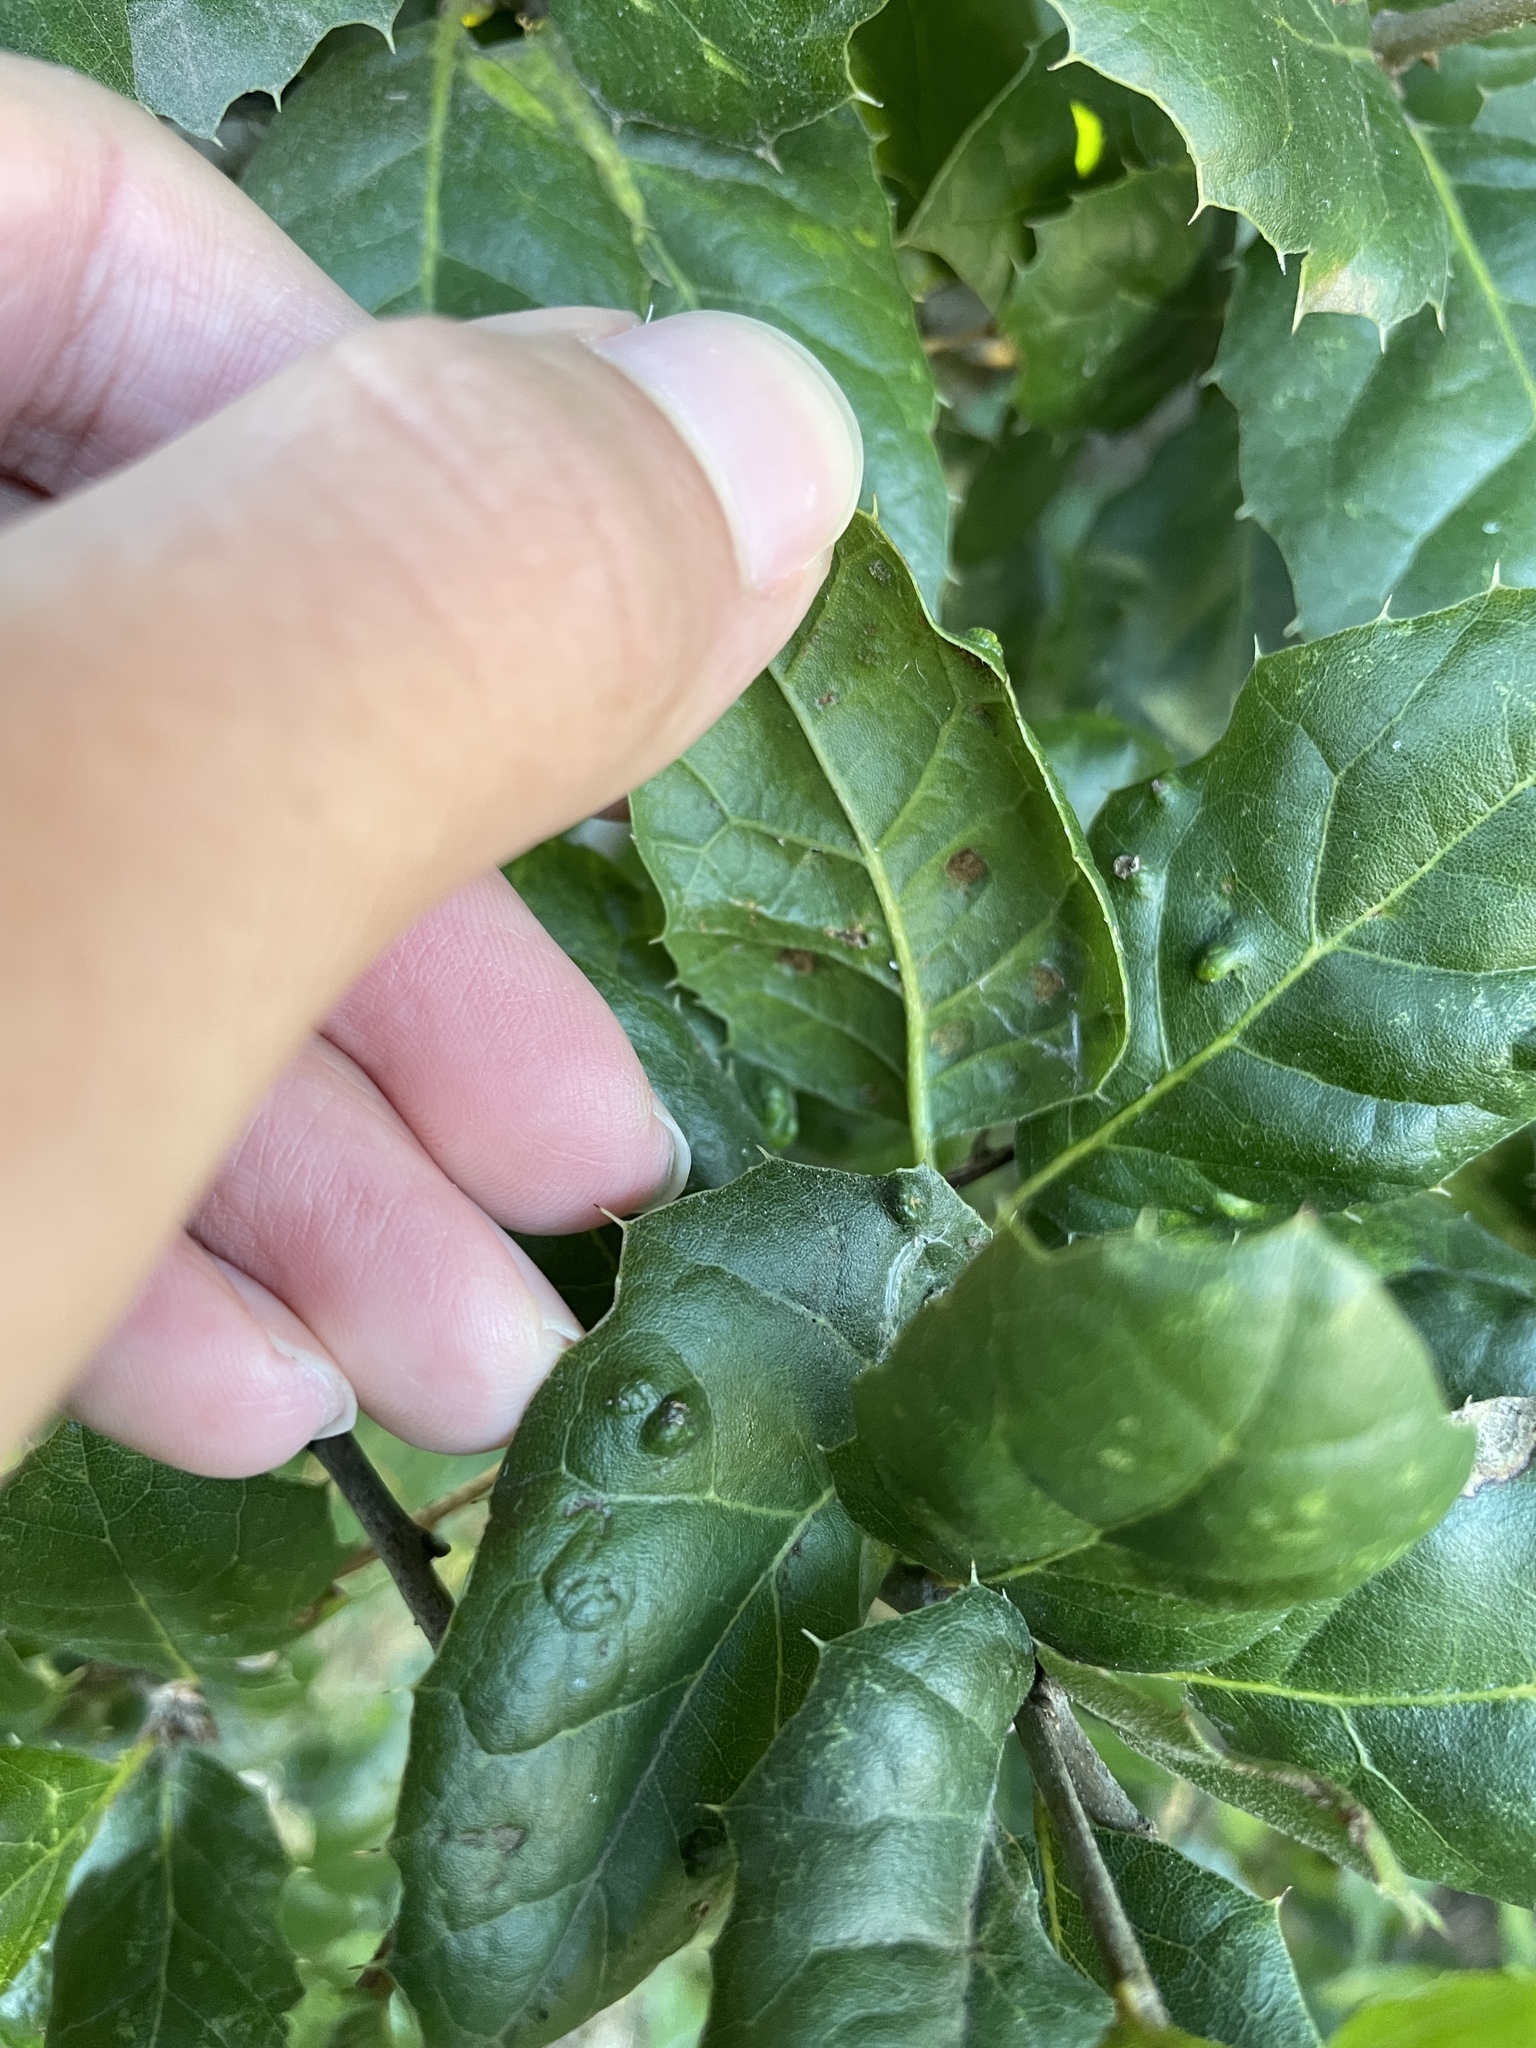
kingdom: Animalia
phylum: Arthropoda
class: Arachnida
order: Trombidiformes
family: Eriophyidae
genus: Aceria
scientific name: Aceria
